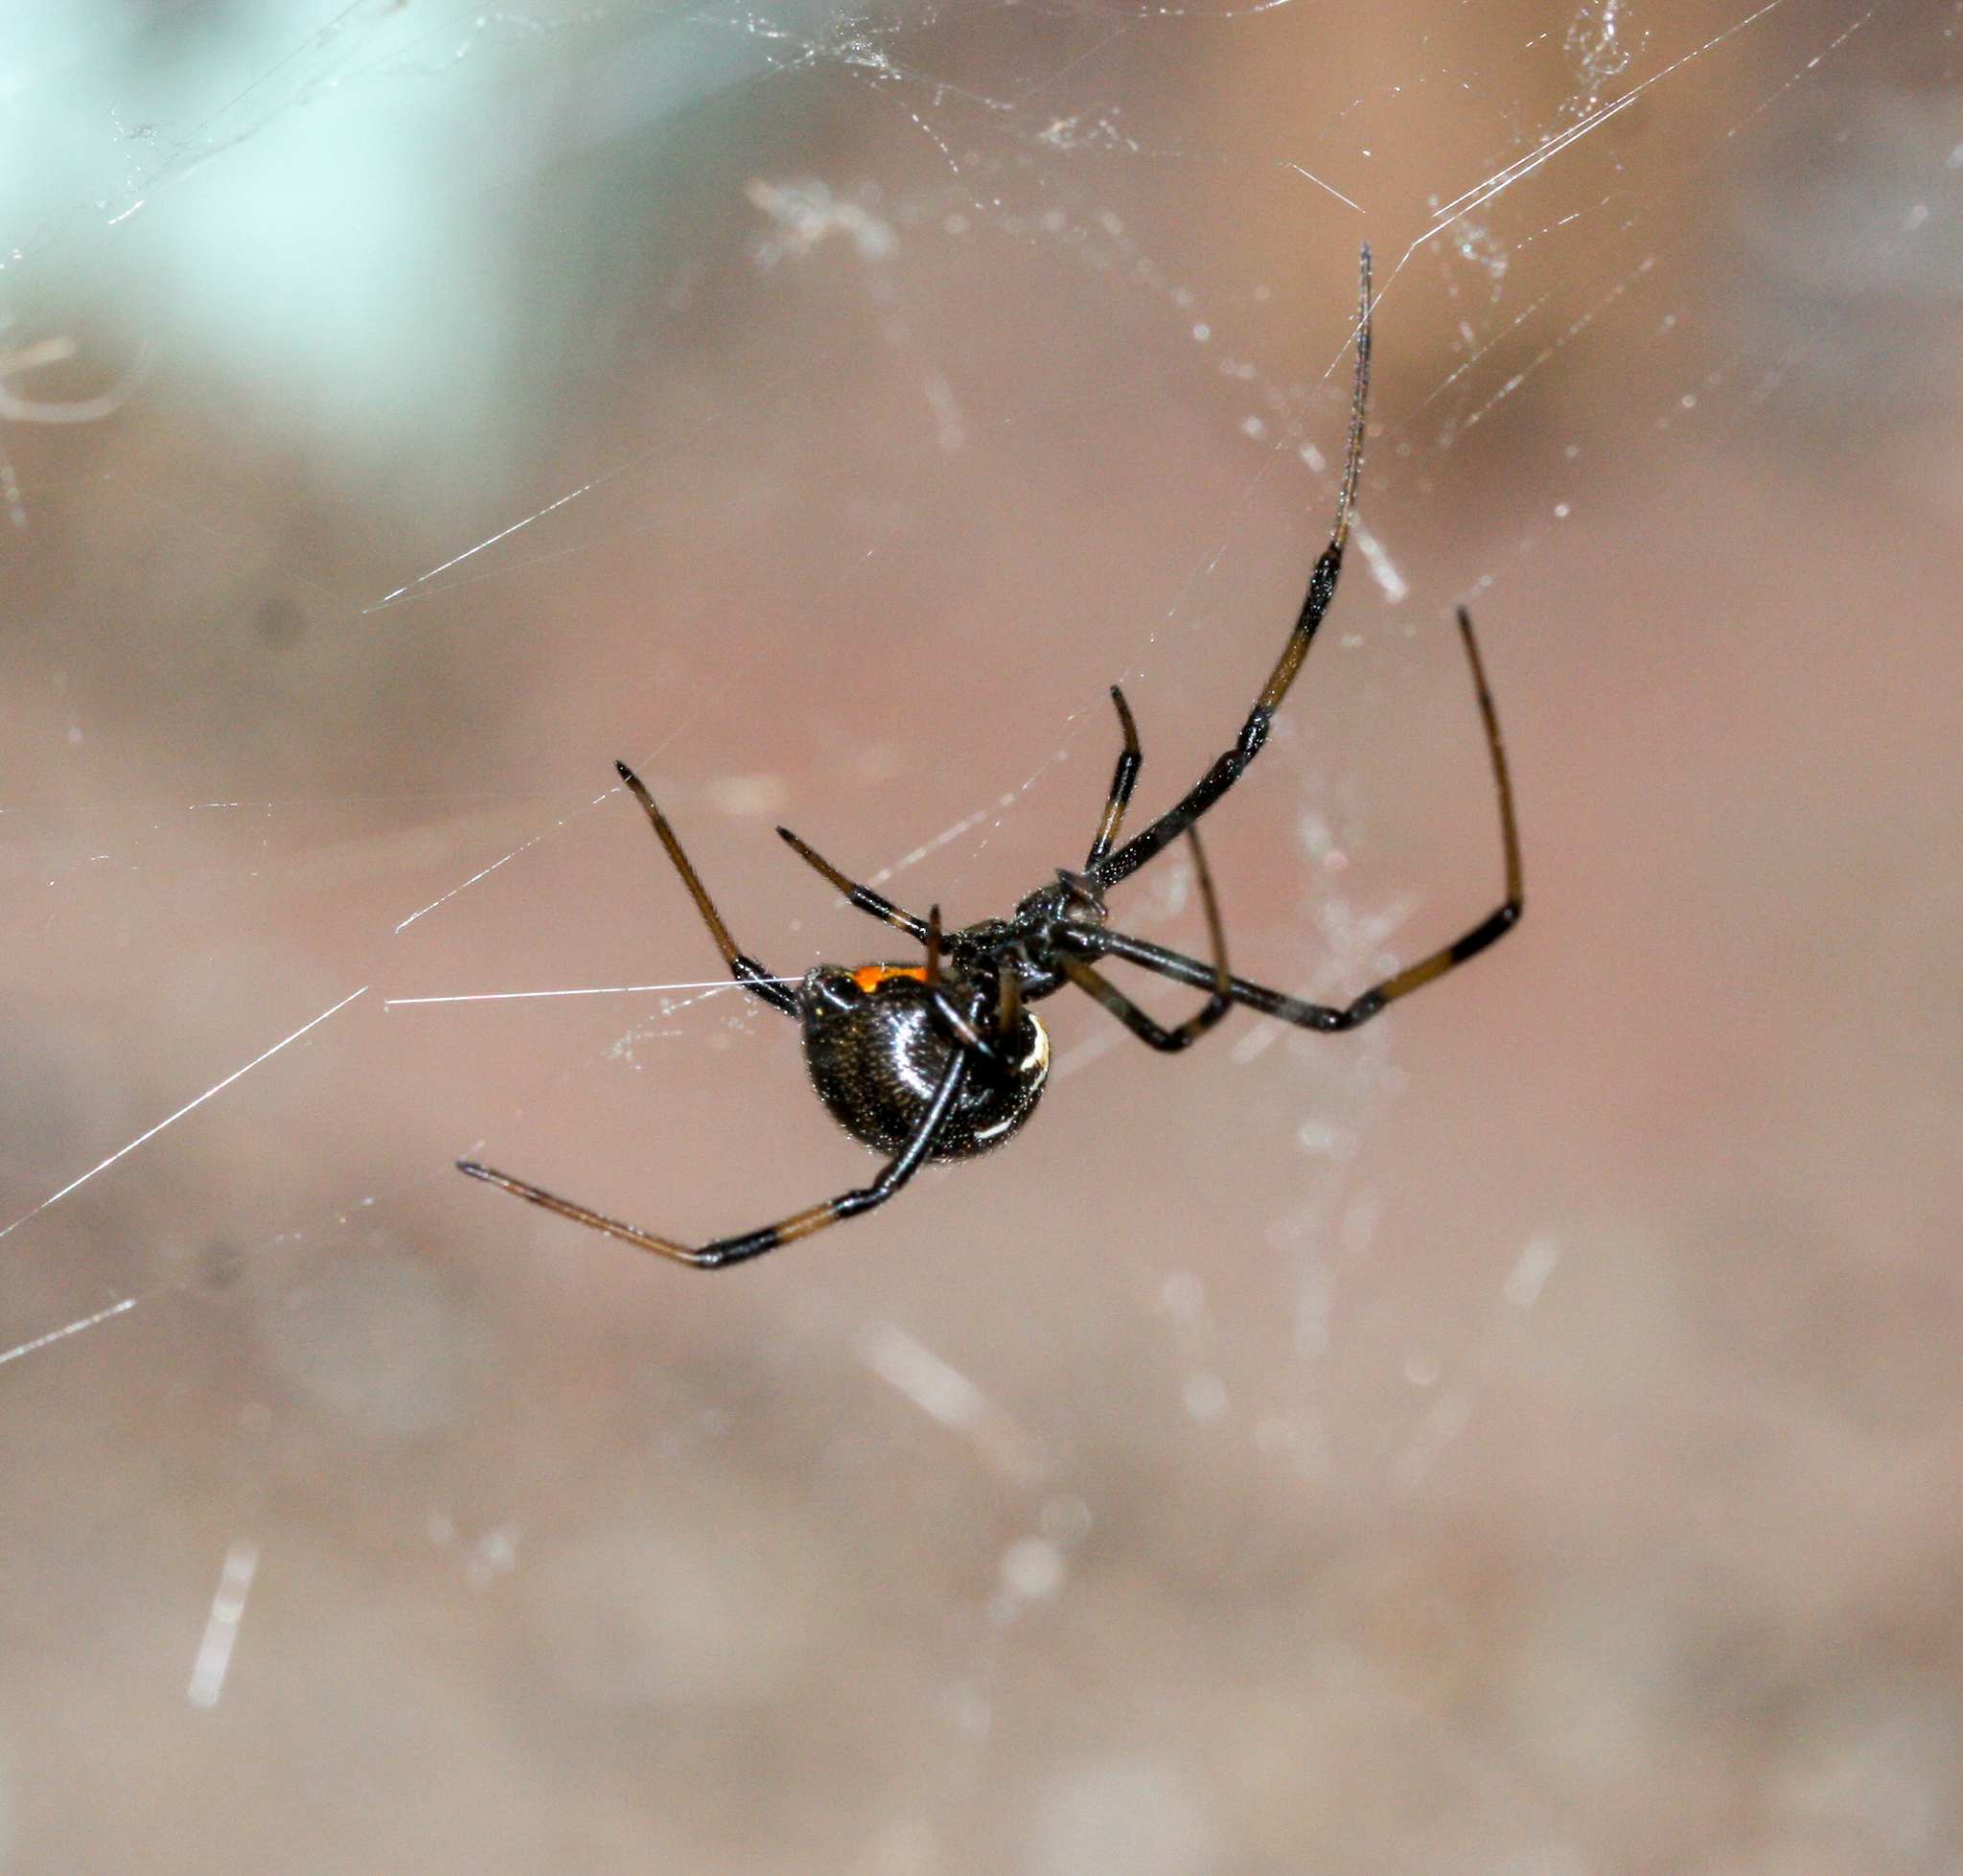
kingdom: Animalia
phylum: Arthropoda
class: Arachnida
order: Araneae
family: Theridiidae
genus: Latrodectus
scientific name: Latrodectus hesperus
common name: Western black widow
